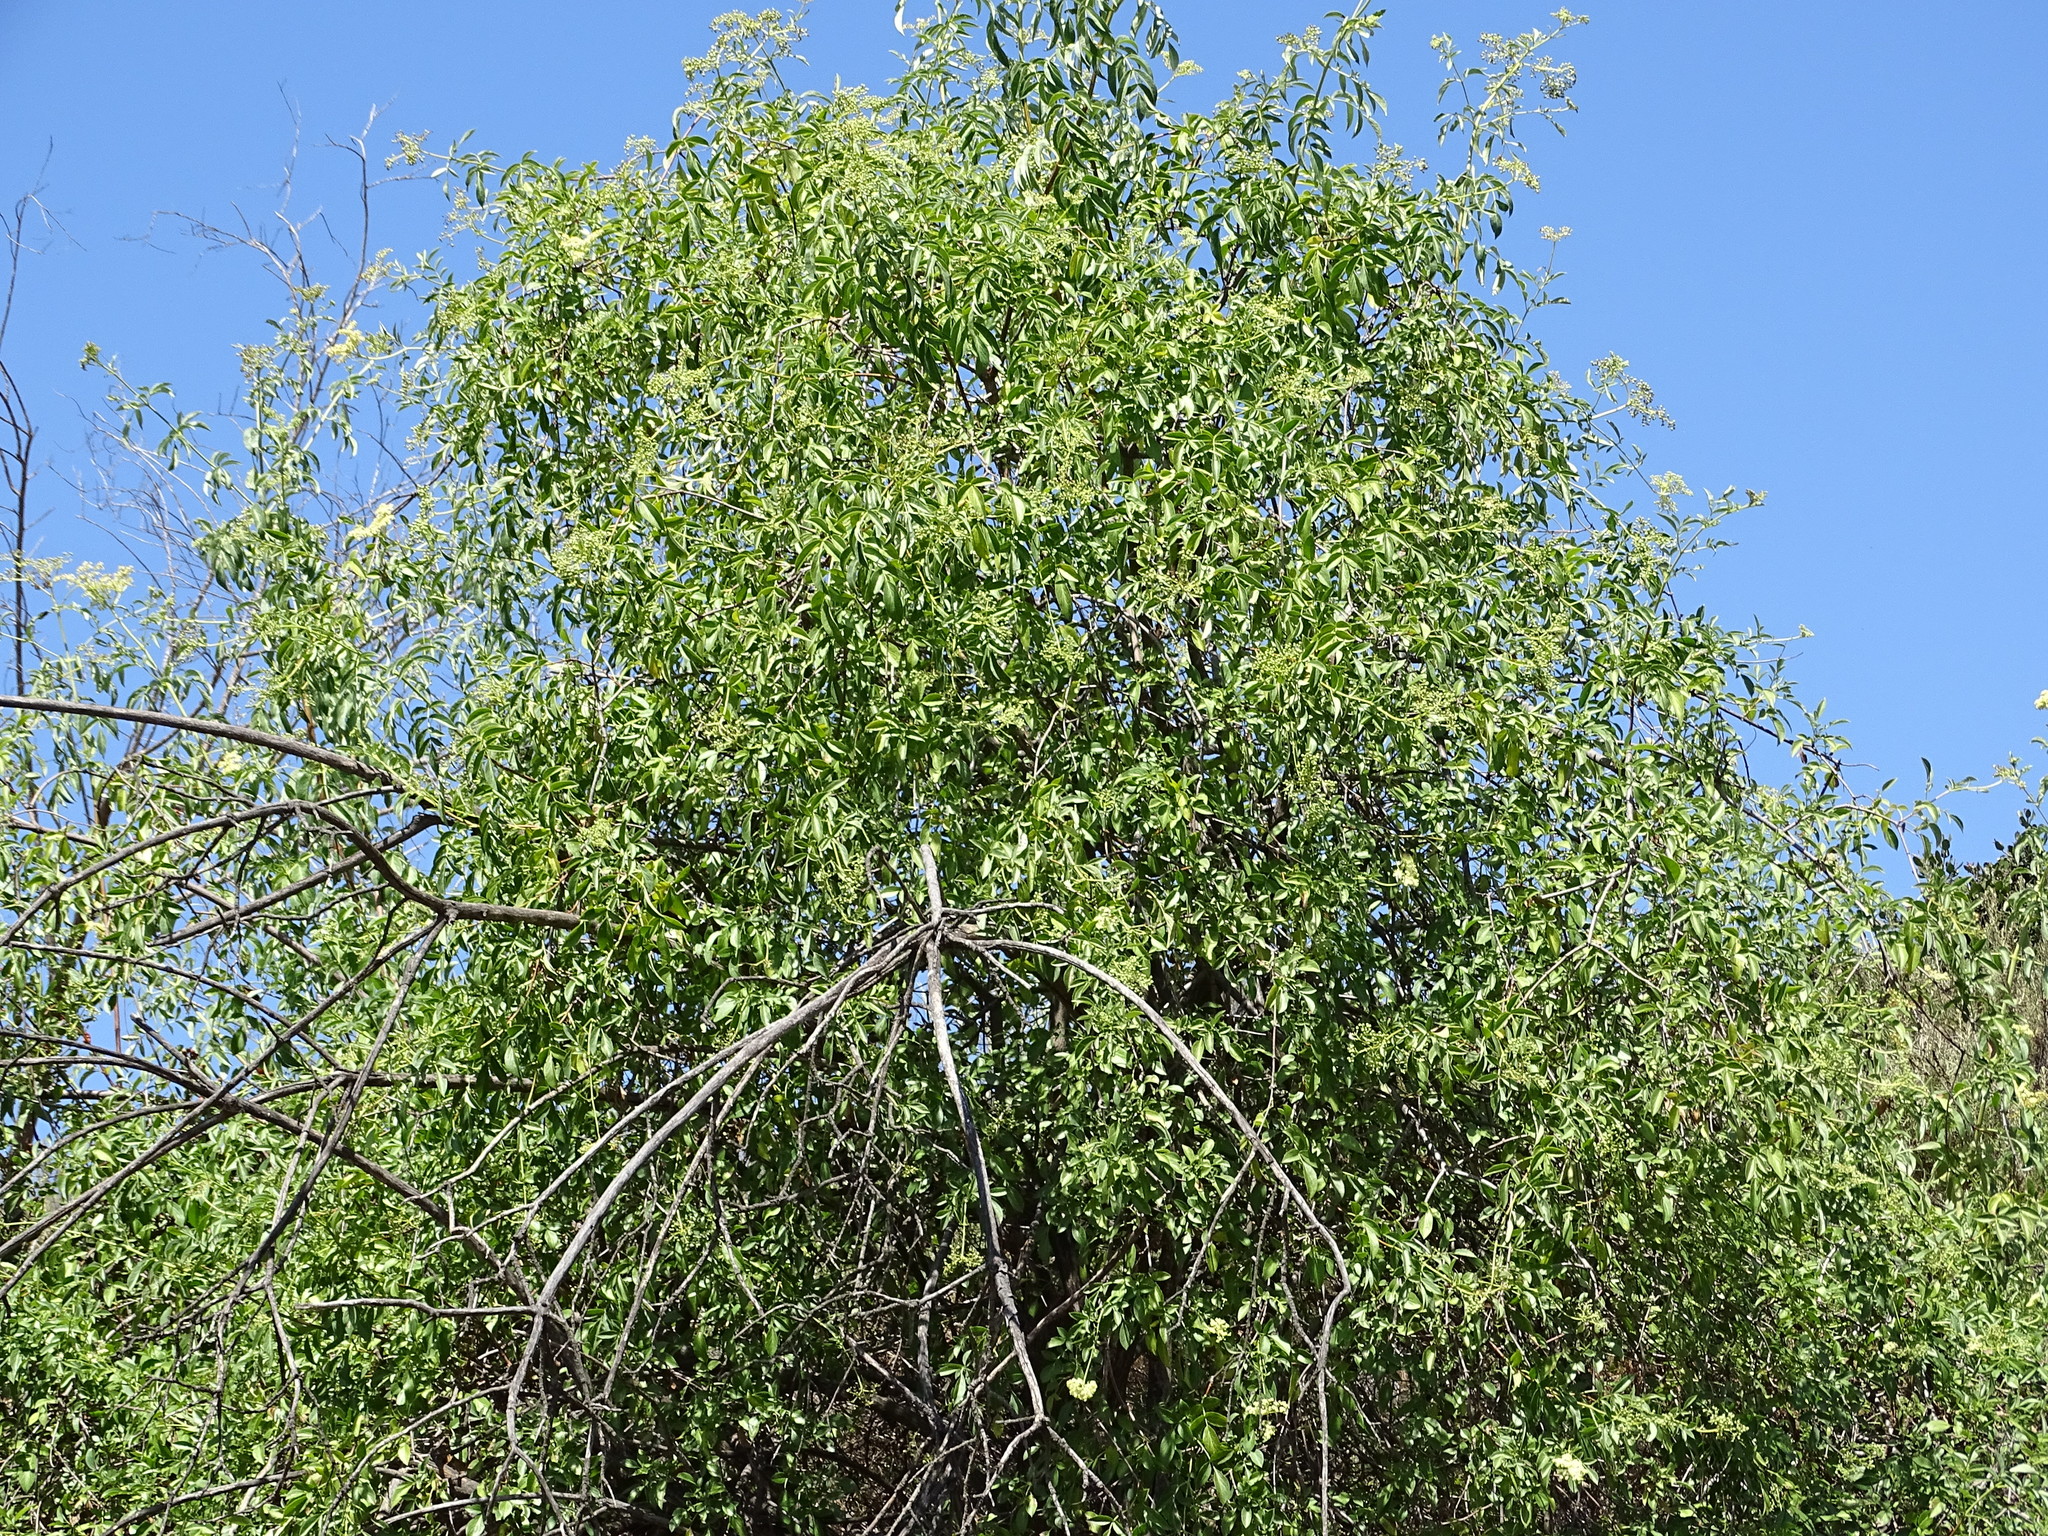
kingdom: Plantae
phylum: Tracheophyta
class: Magnoliopsida
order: Dipsacales
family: Viburnaceae
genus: Sambucus
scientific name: Sambucus cerulea
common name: Blue elder
